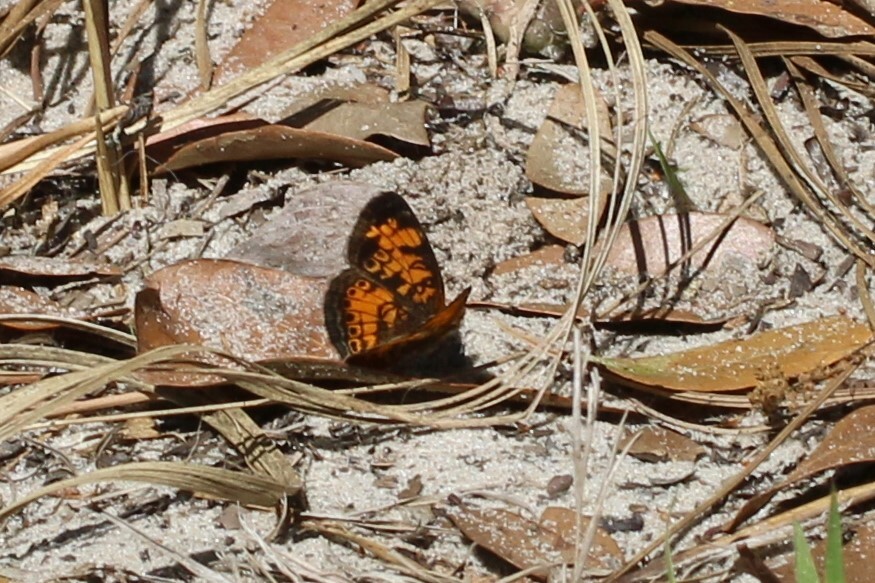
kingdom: Animalia
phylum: Arthropoda
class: Insecta
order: Lepidoptera
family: Nymphalidae
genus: Phyciodes
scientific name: Phyciodes tharos
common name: Pearl crescent
